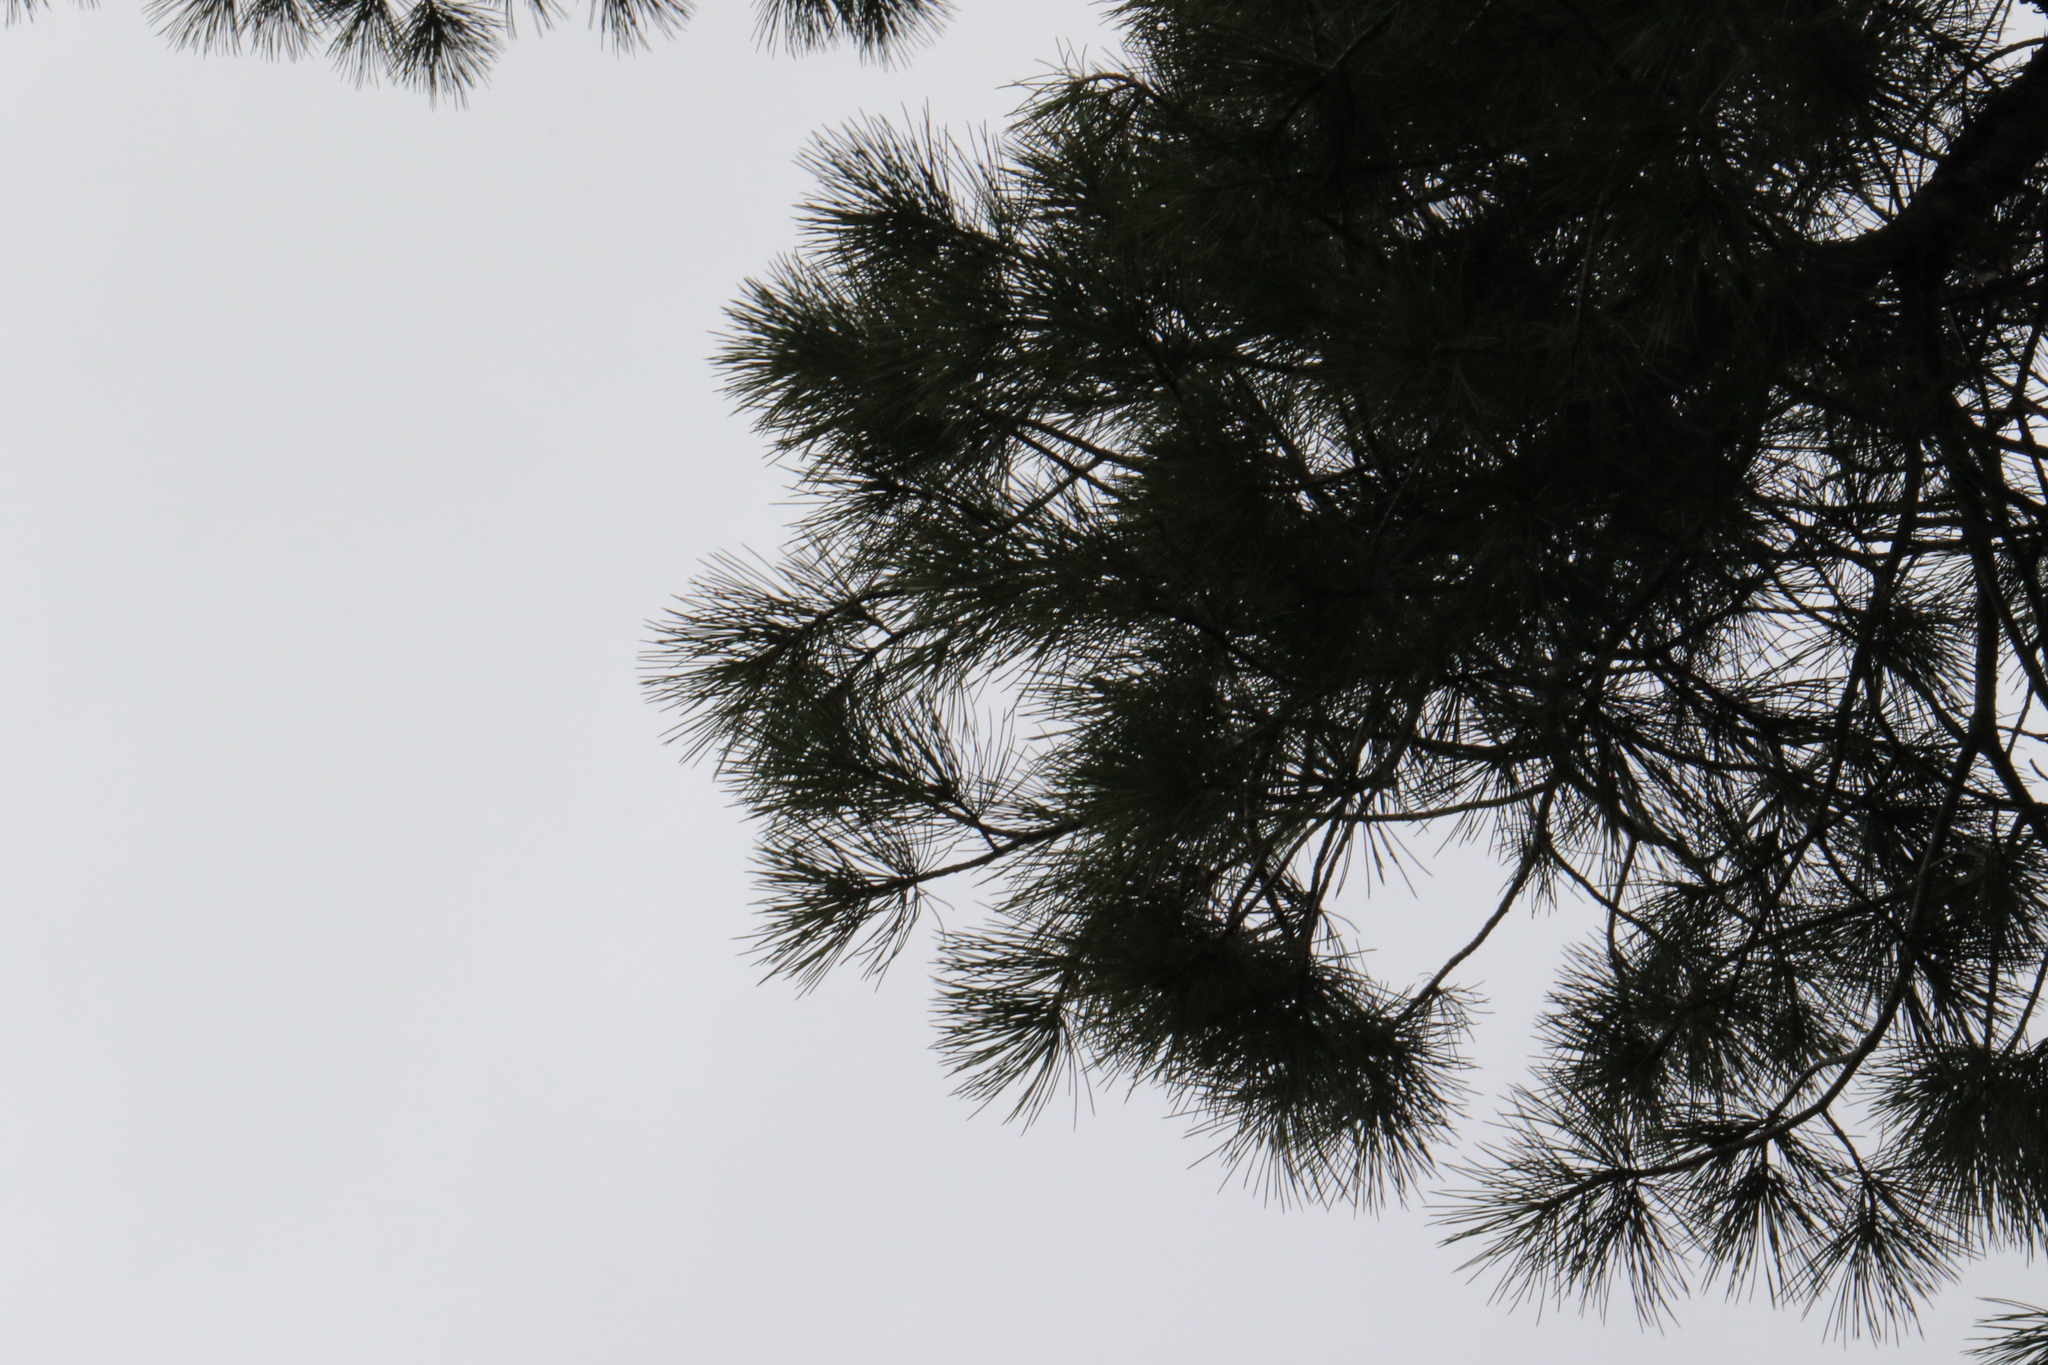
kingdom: Plantae
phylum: Tracheophyta
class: Pinopsida
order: Pinales
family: Pinaceae
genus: Pinus
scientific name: Pinus lambertiana
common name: Sugar pine
